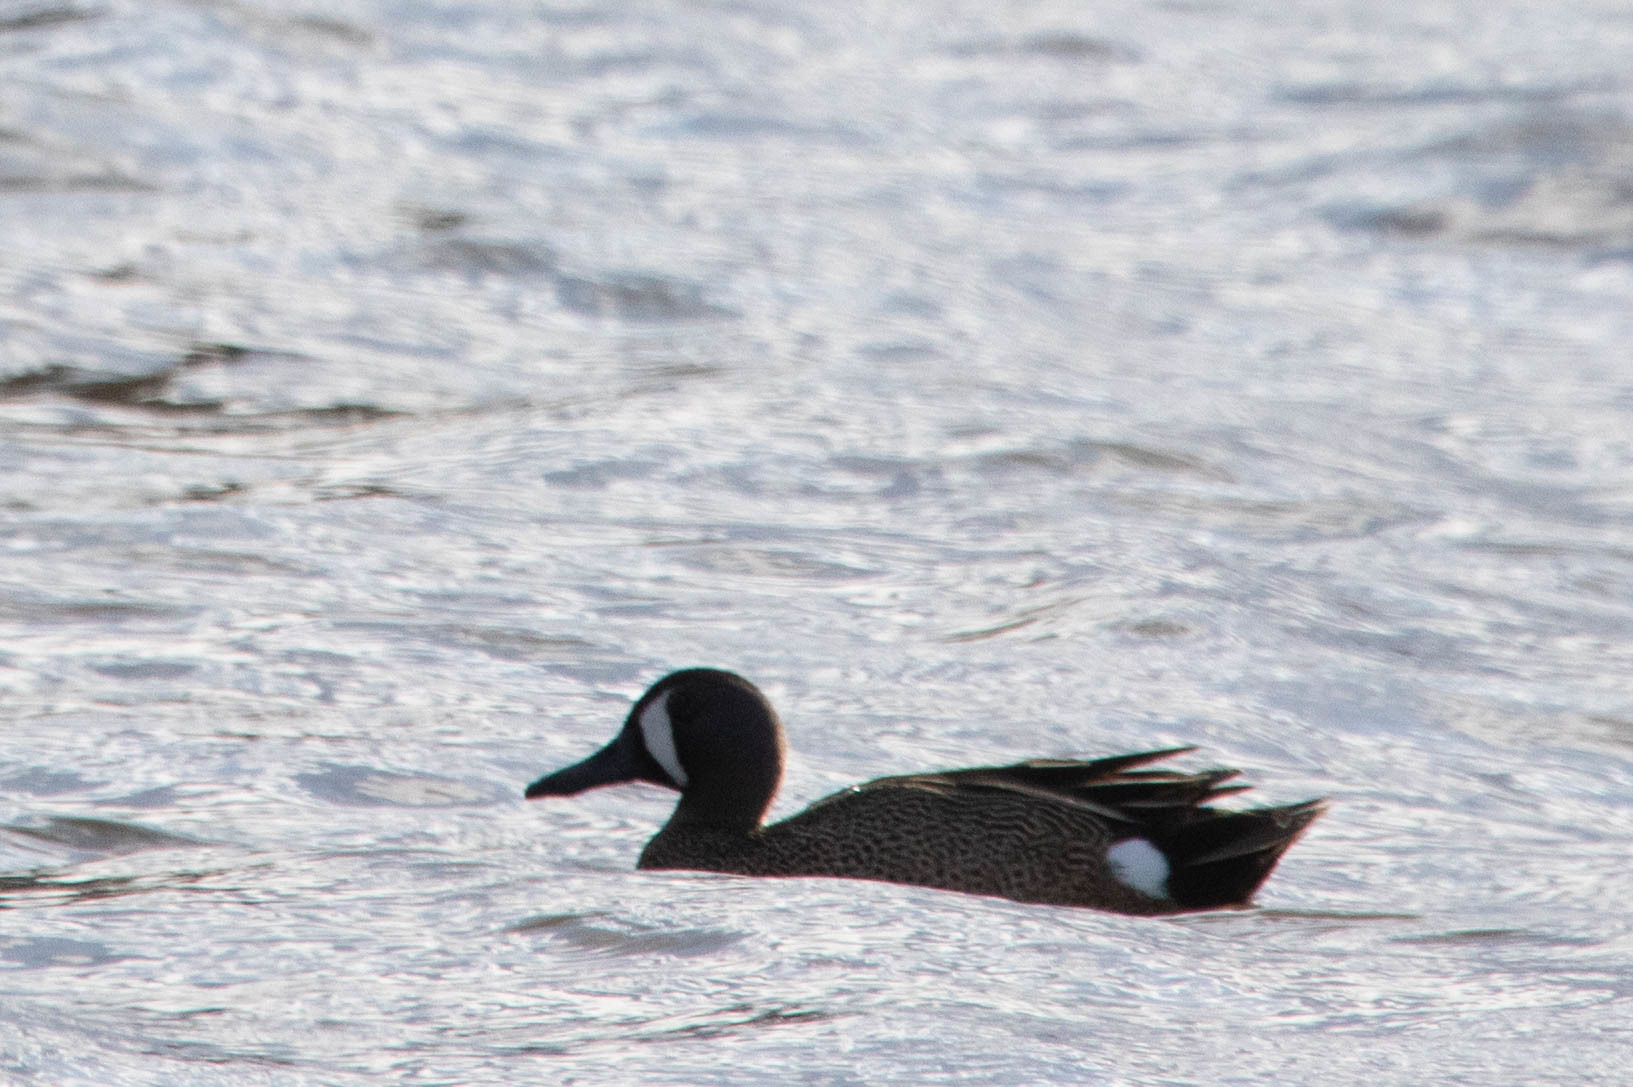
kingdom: Animalia
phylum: Chordata
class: Aves
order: Anseriformes
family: Anatidae
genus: Spatula
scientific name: Spatula discors
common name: Blue-winged teal
